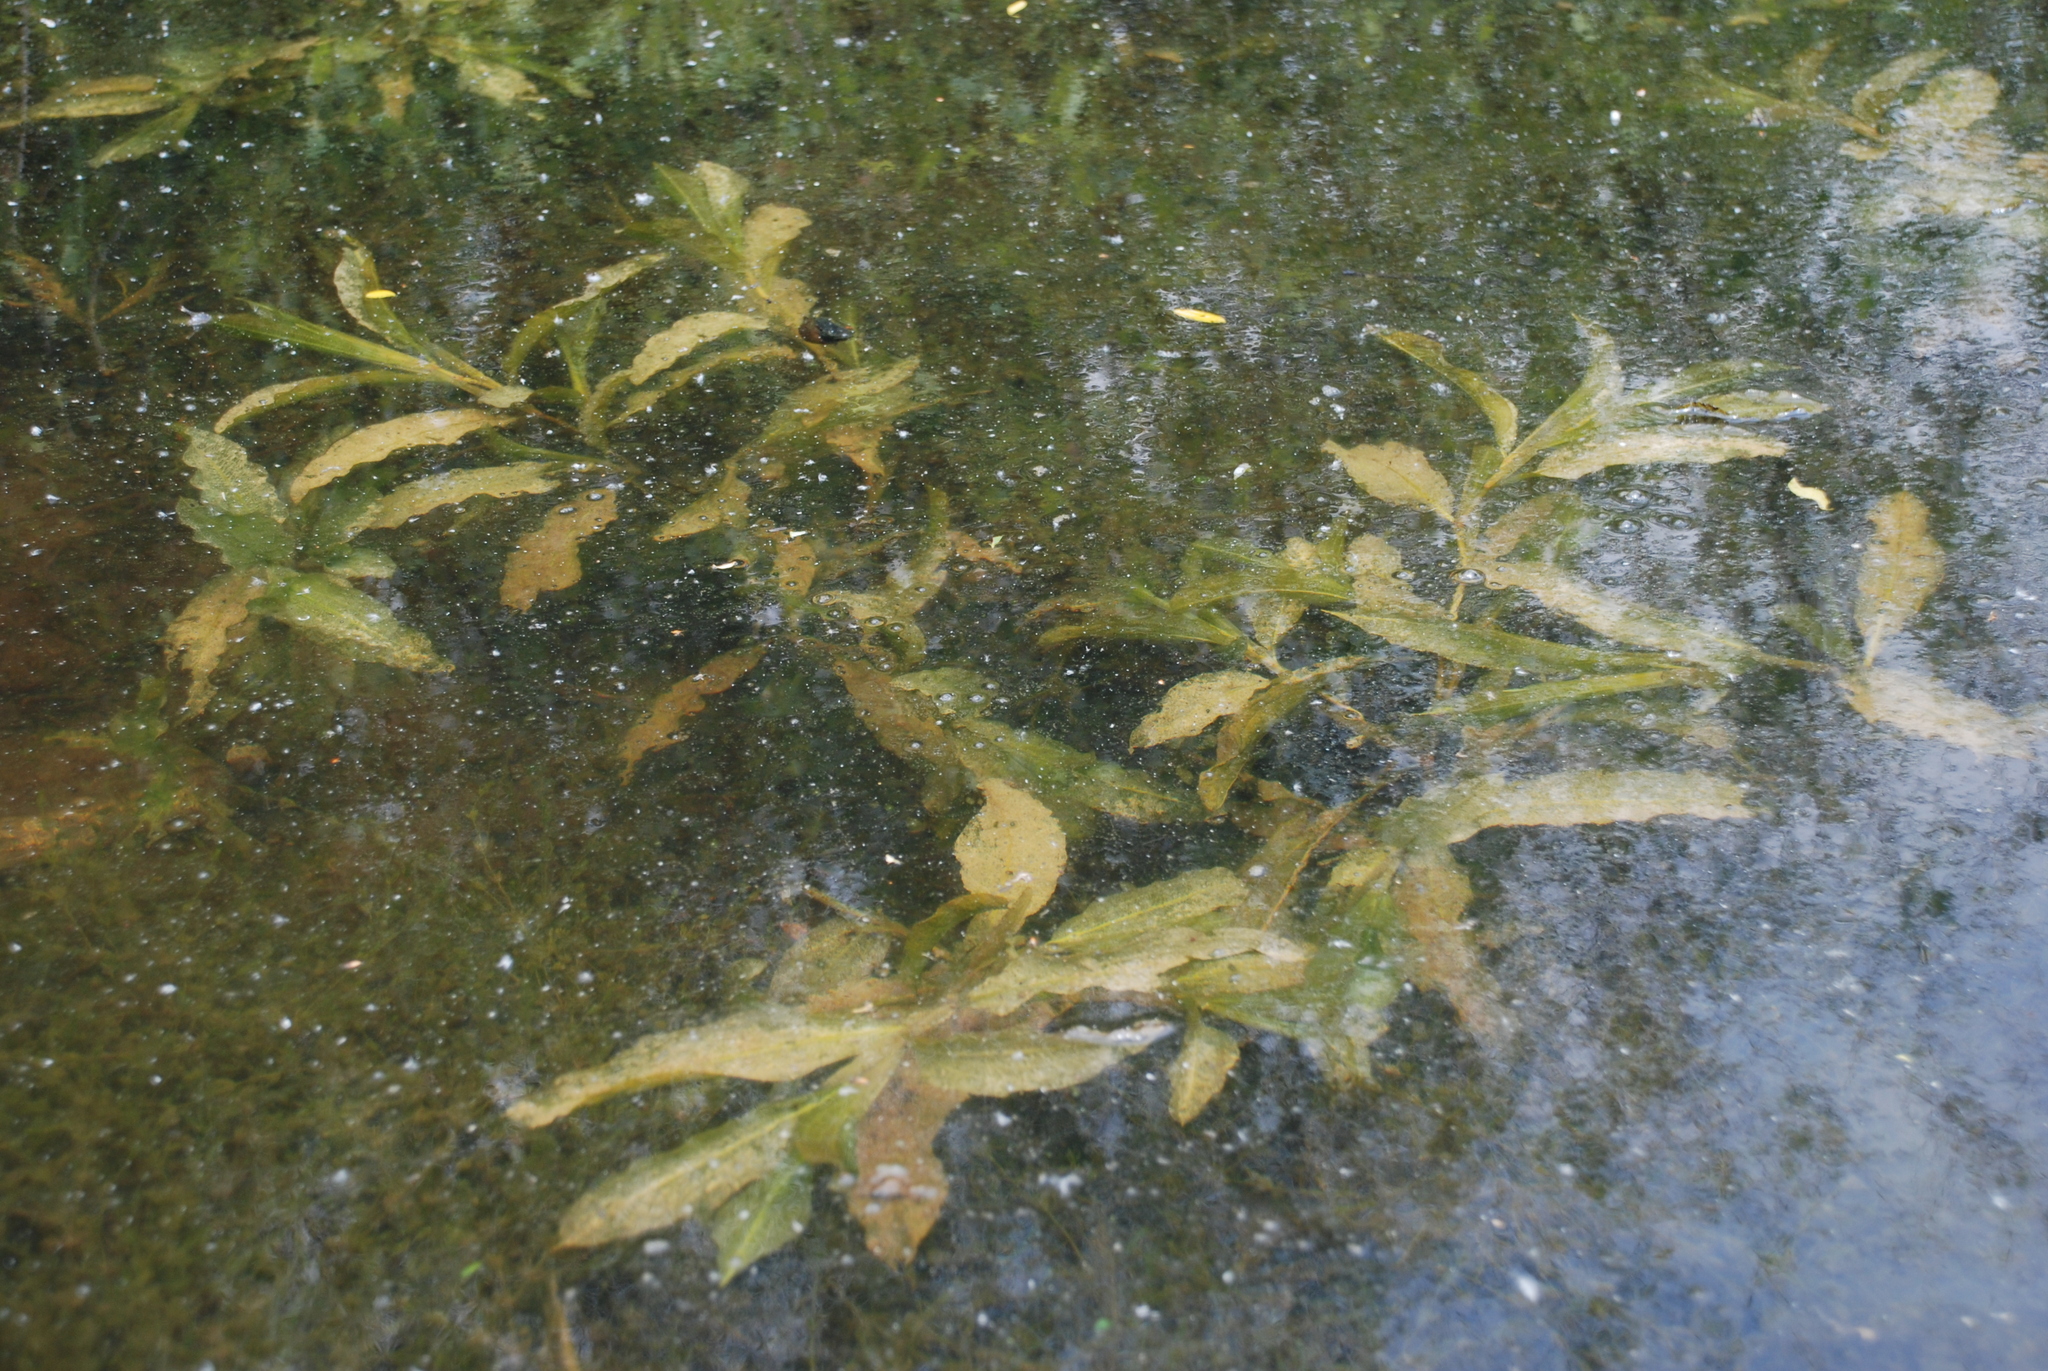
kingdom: Plantae
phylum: Tracheophyta
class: Liliopsida
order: Alismatales
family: Potamogetonaceae
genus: Potamogeton
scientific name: Potamogeton lucens
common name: Shining pondweed
